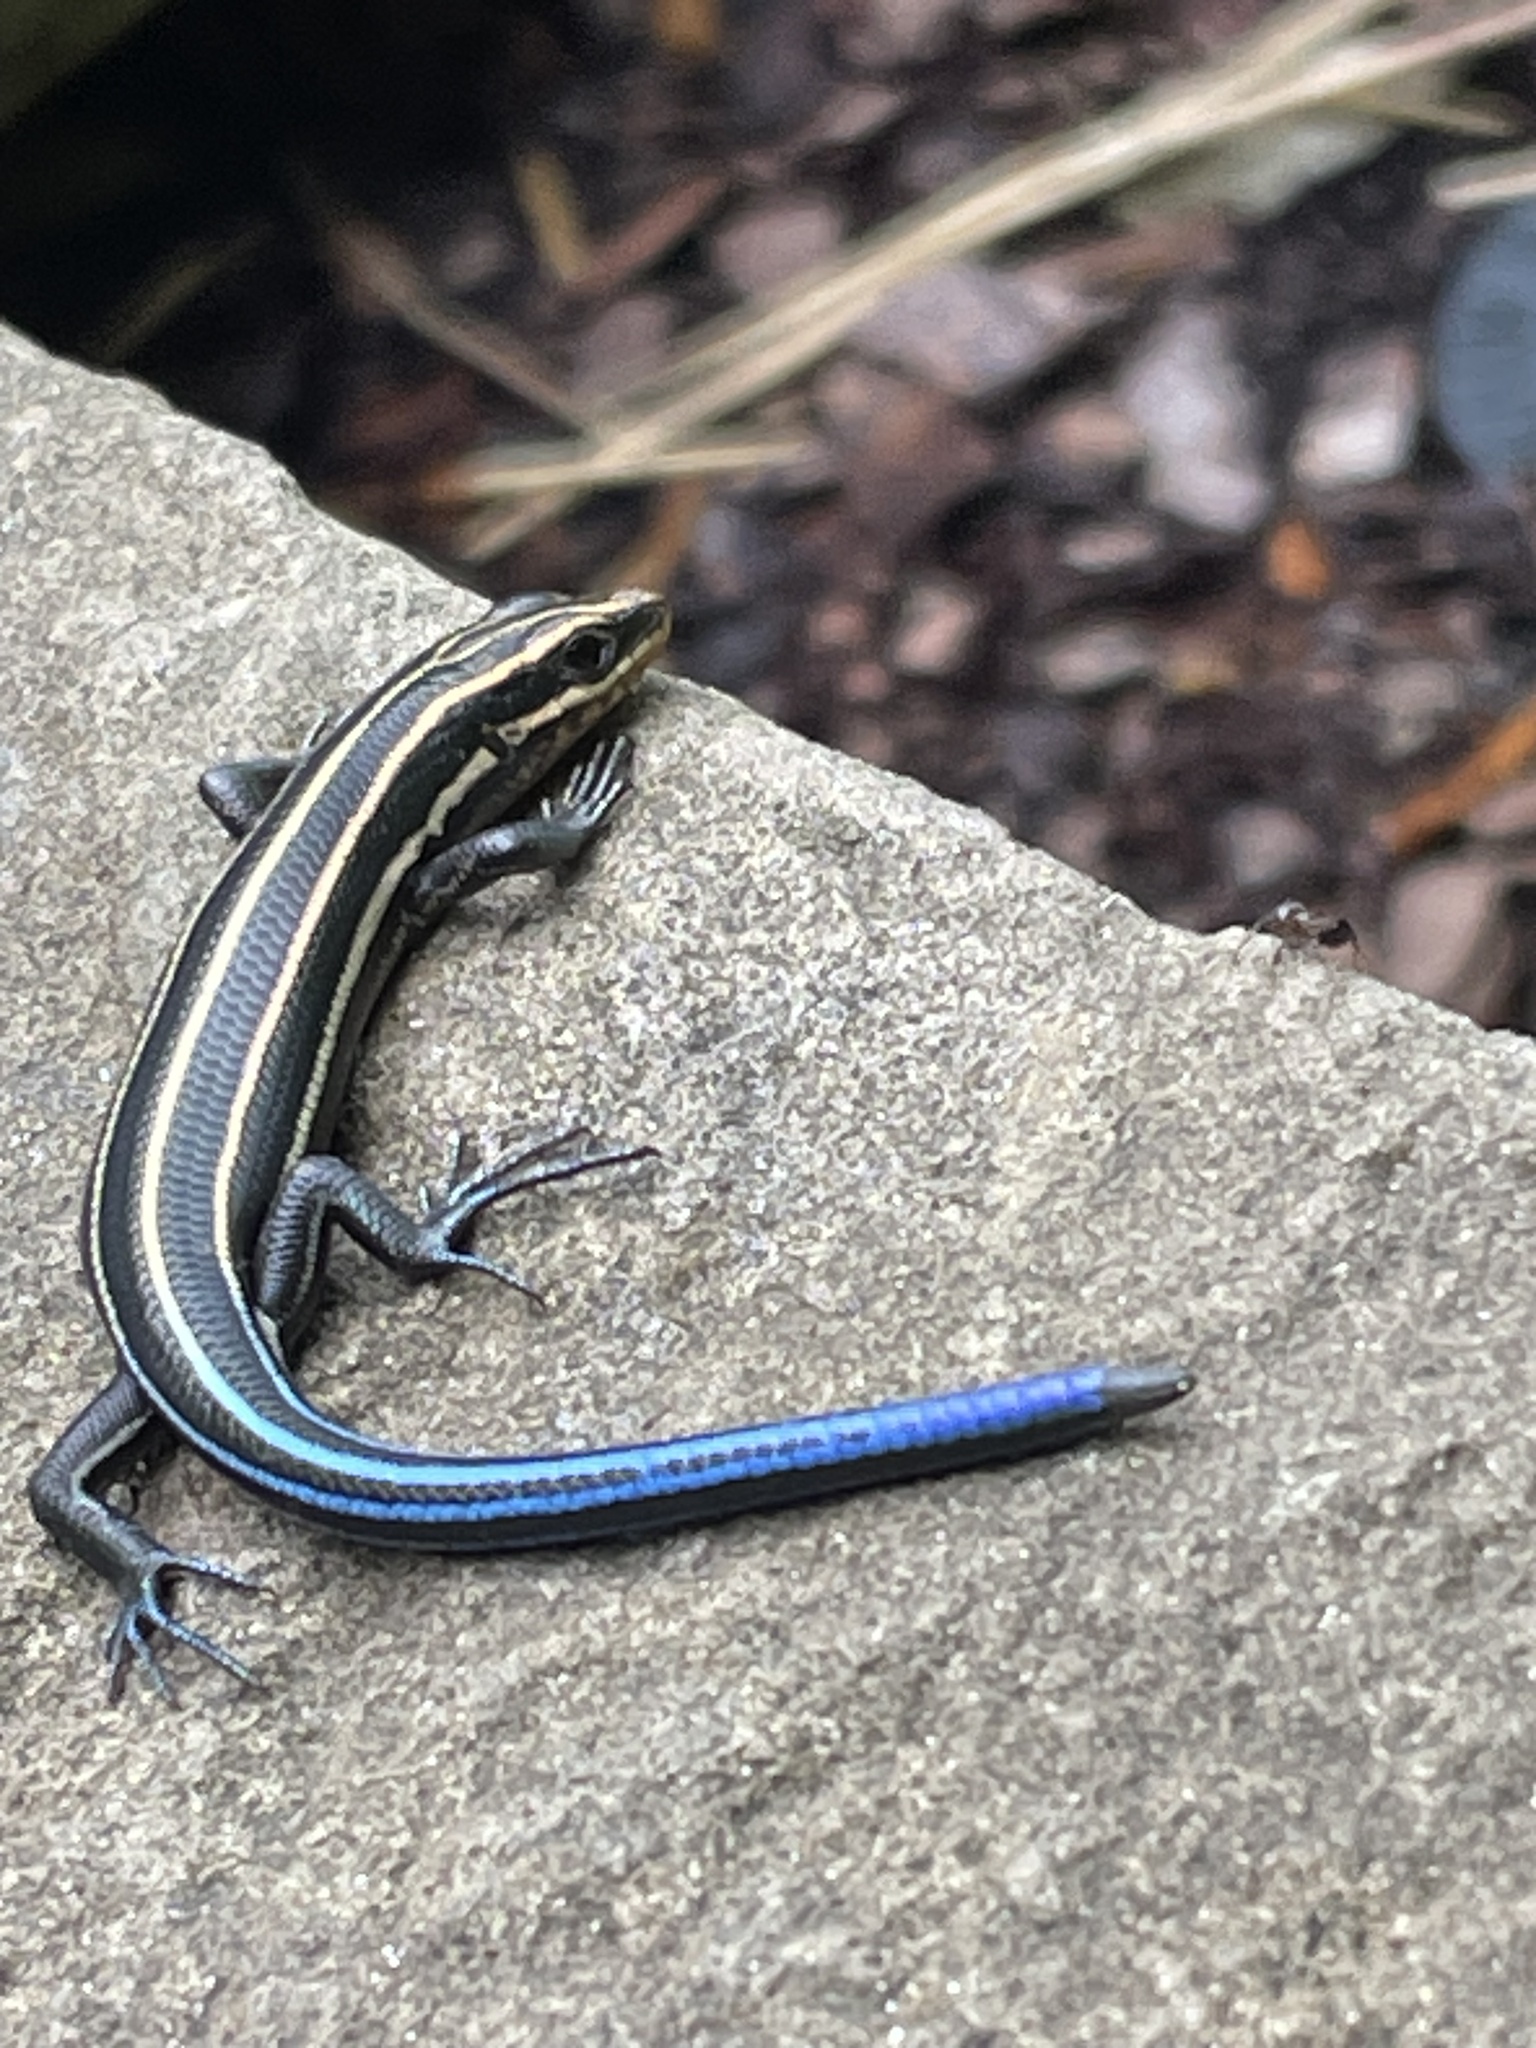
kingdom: Animalia
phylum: Chordata
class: Squamata
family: Scincidae
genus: Plestiodon
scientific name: Plestiodon fasciatus
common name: Five-lined skink
